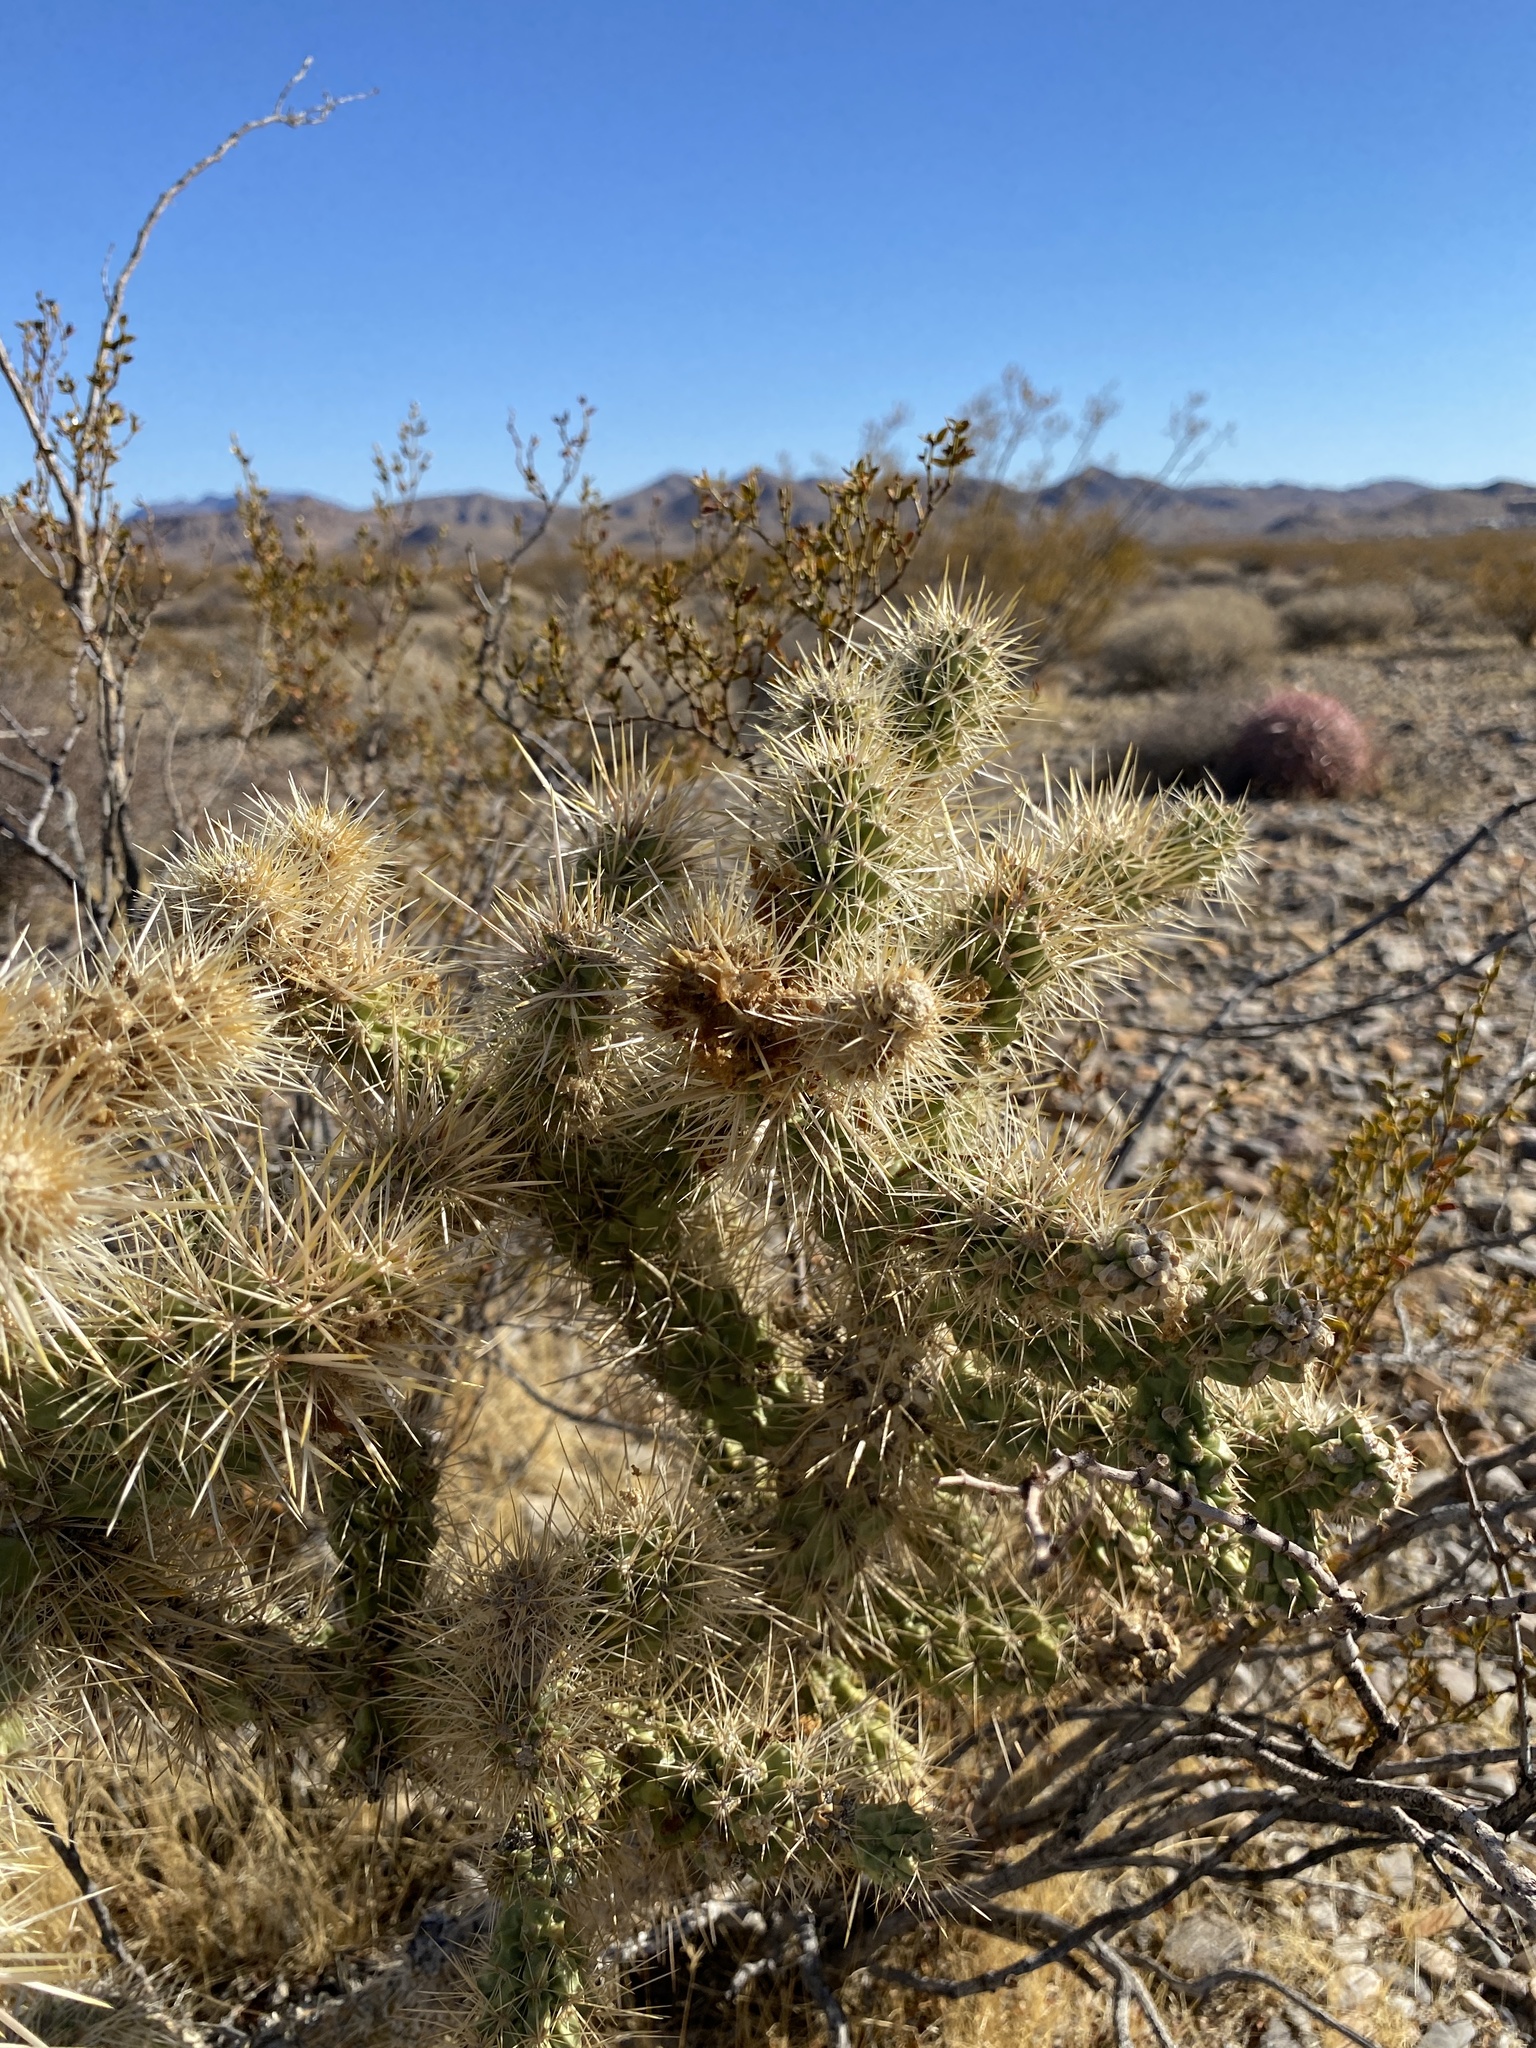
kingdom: Plantae
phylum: Tracheophyta
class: Magnoliopsida
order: Caryophyllales
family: Cactaceae
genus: Cylindropuntia
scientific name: Cylindropuntia echinocarpa
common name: Ground cholla
